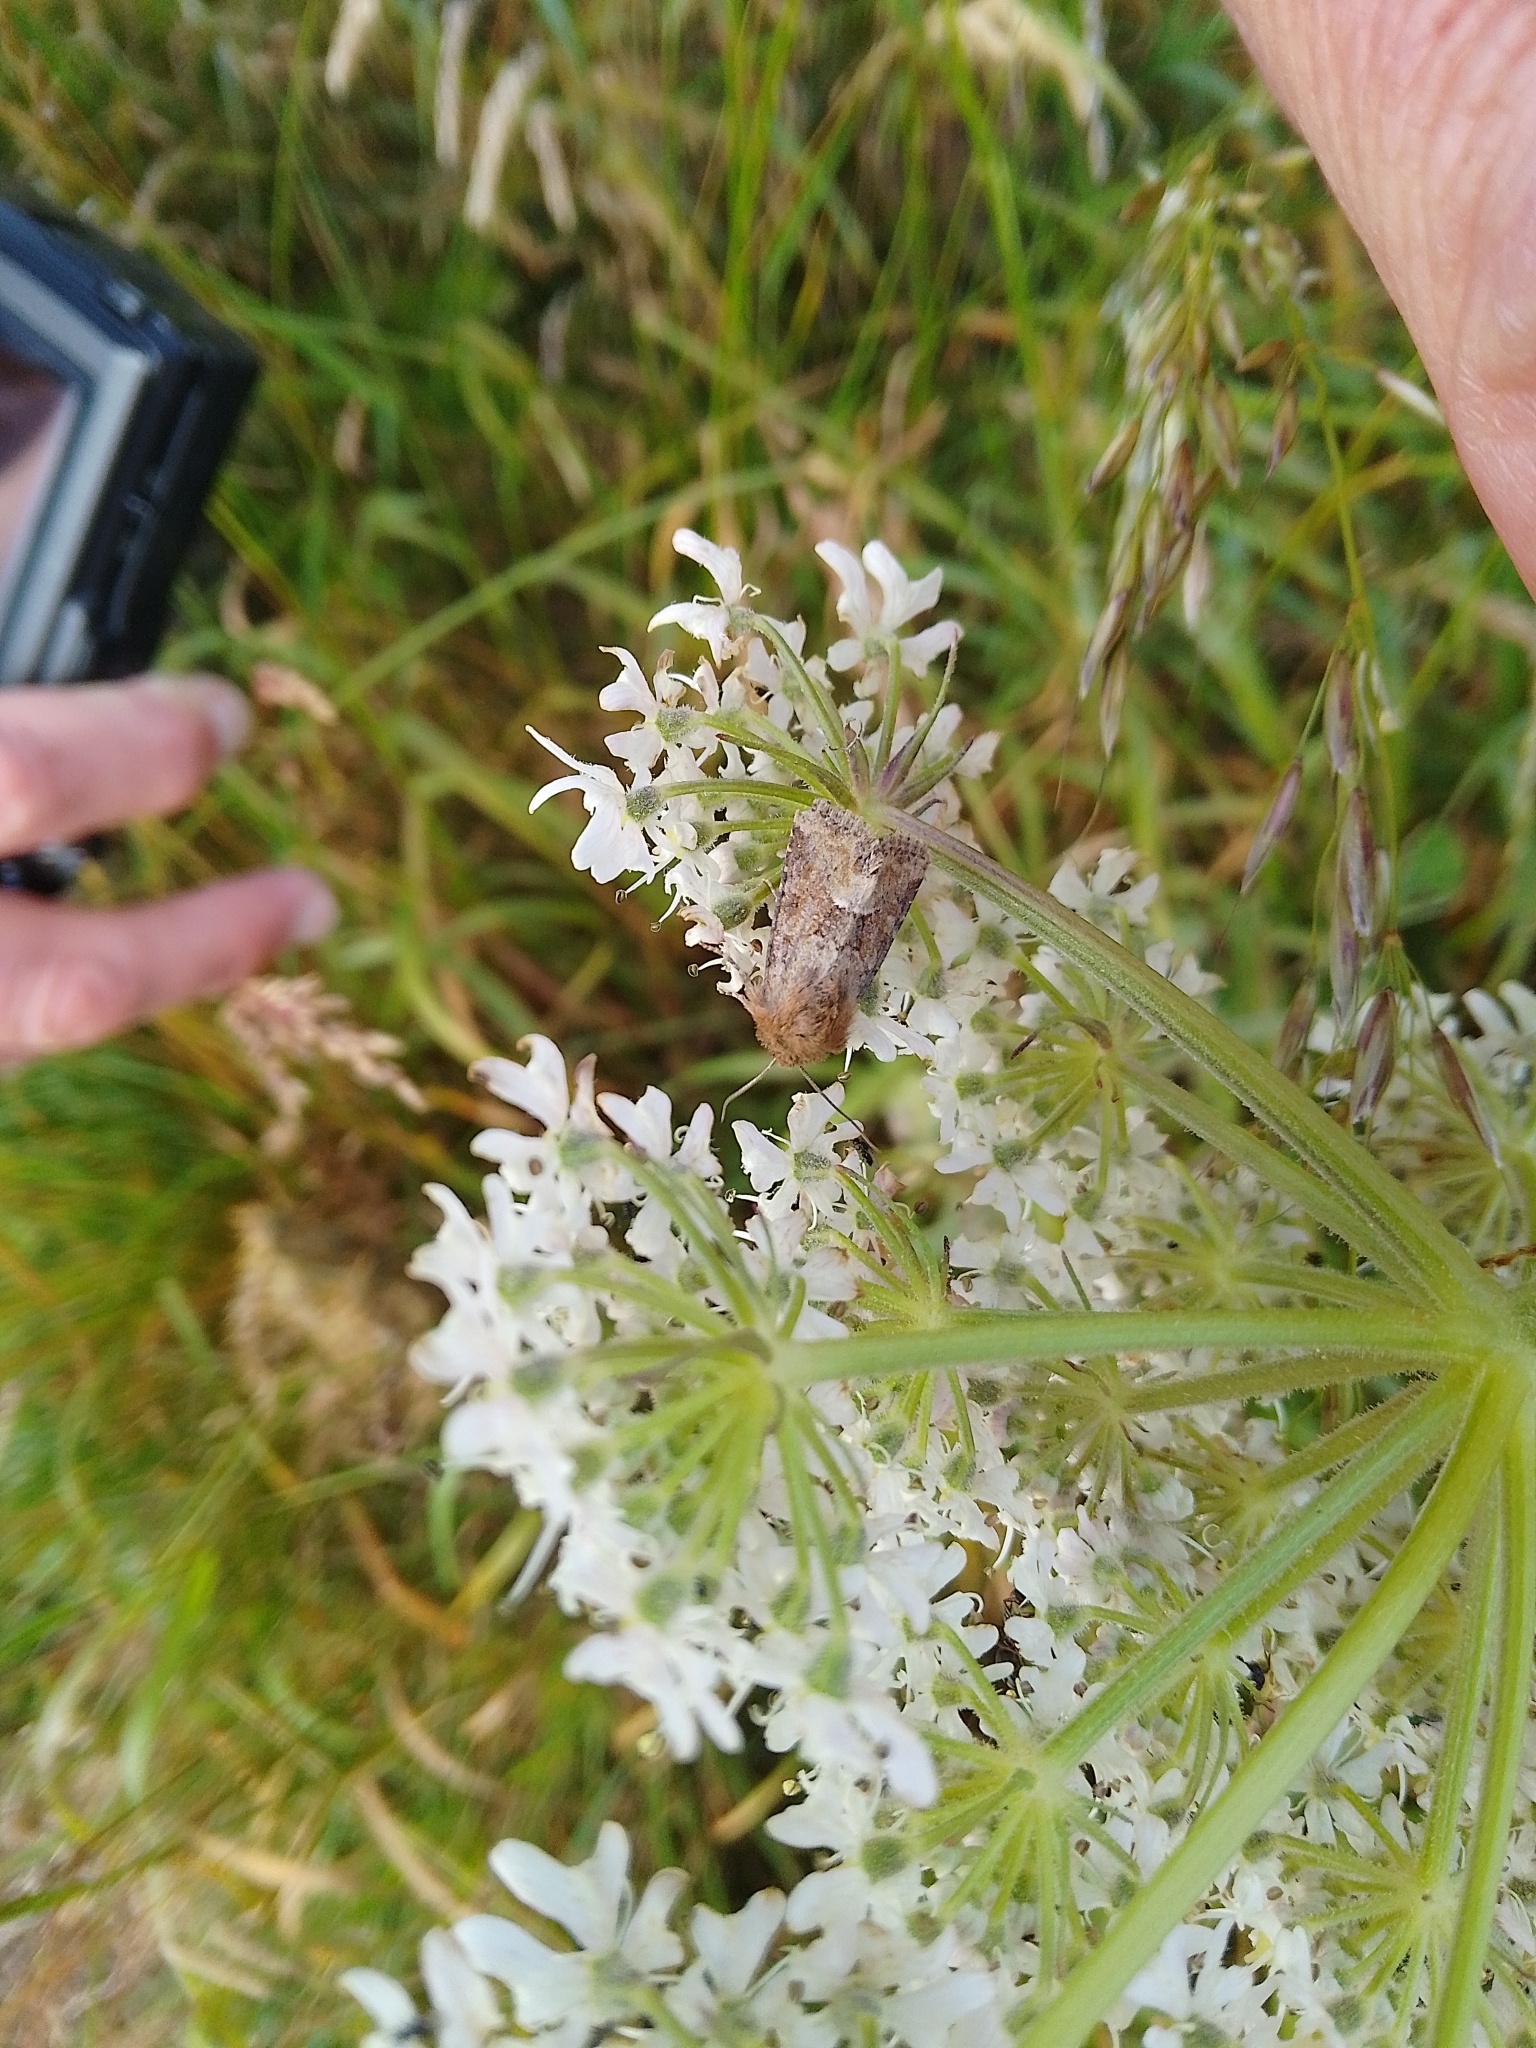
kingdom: Animalia
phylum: Arthropoda
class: Insecta
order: Lepidoptera
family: Noctuidae
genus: Oligia
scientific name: Oligia fasciuncula
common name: Middle-barred minor
